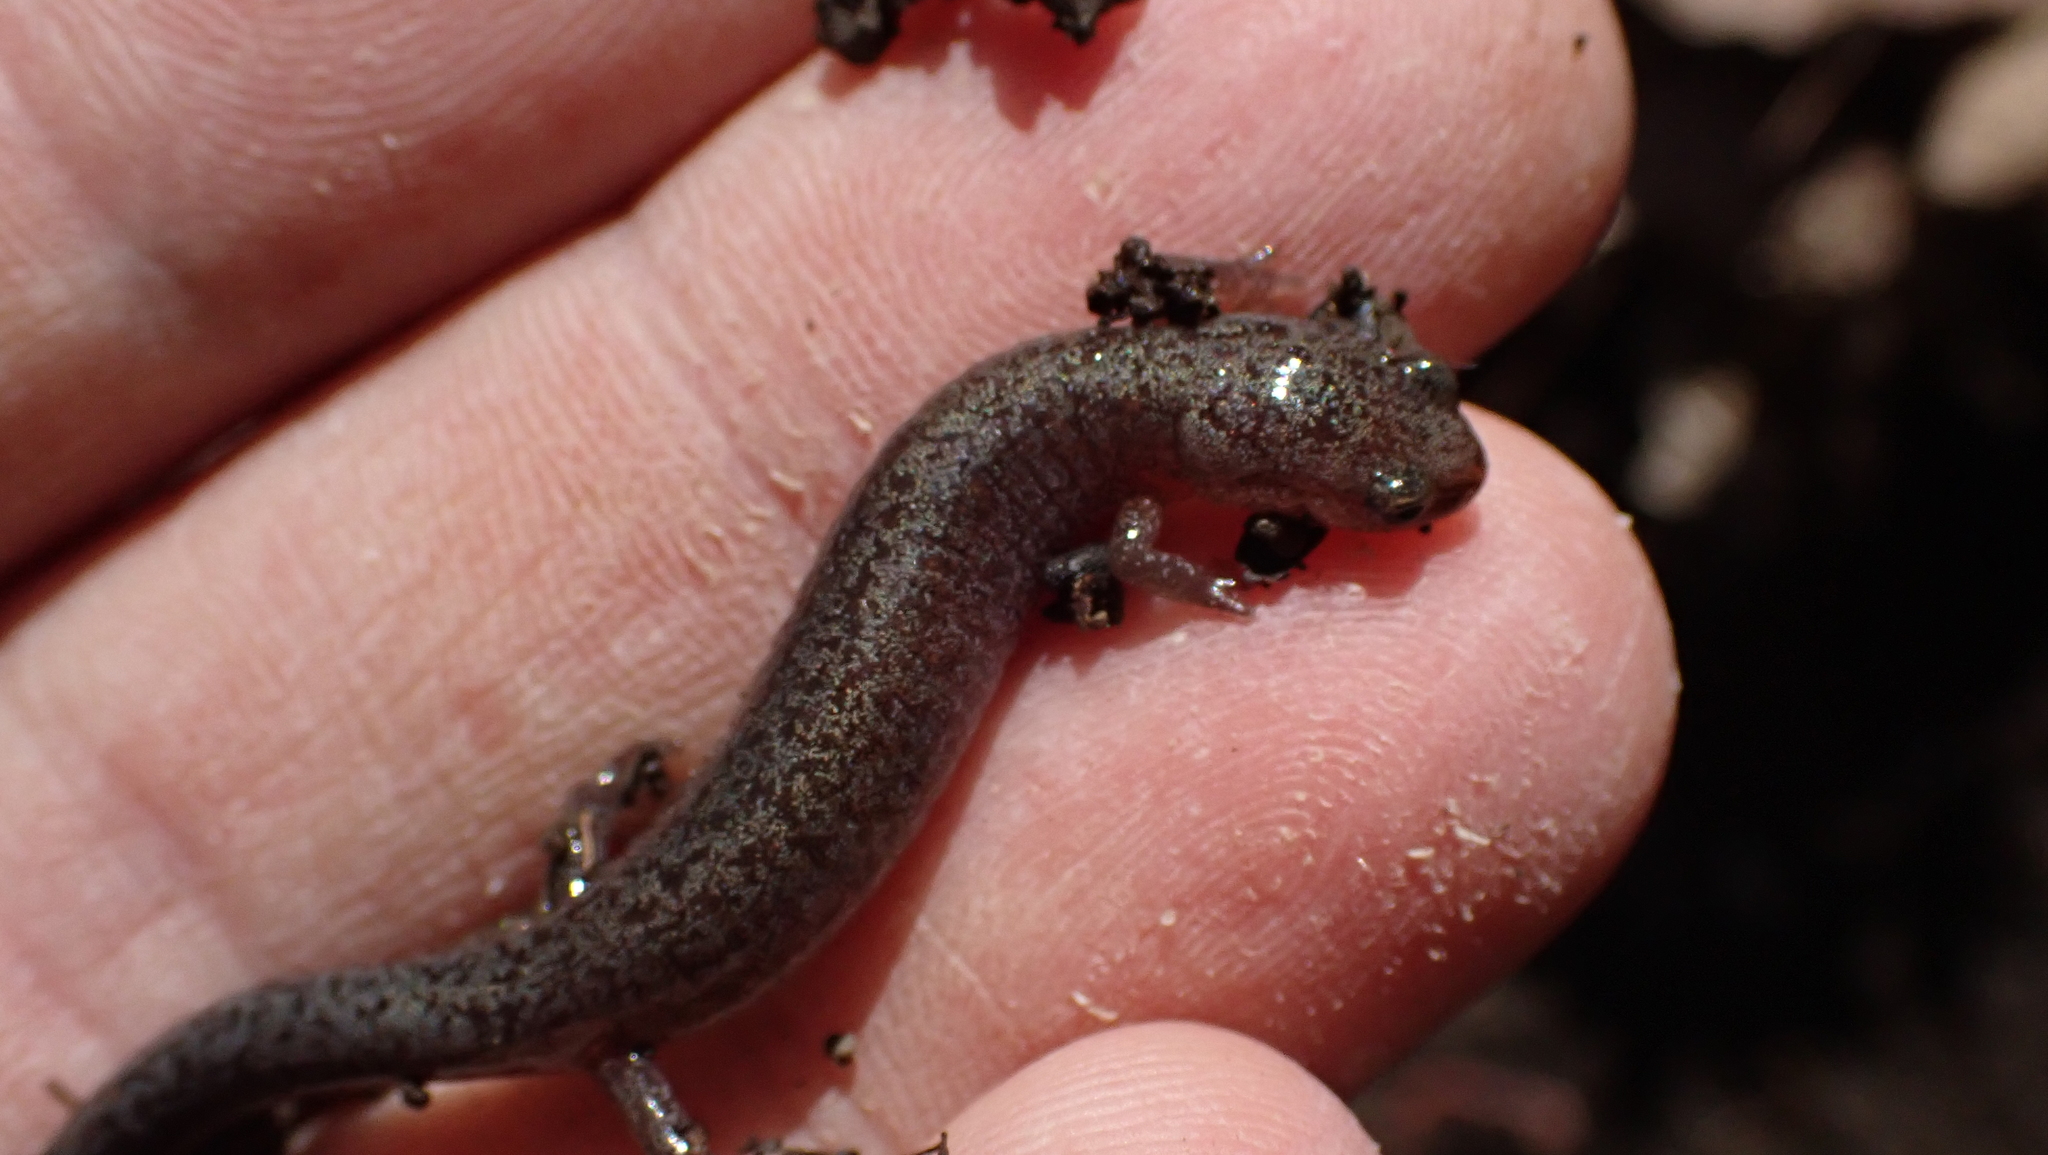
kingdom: Animalia
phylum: Chordata
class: Amphibia
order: Caudata
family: Plethodontidae
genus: Plethodon
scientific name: Plethodon dorsalis
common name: Northern zigzag salamander
